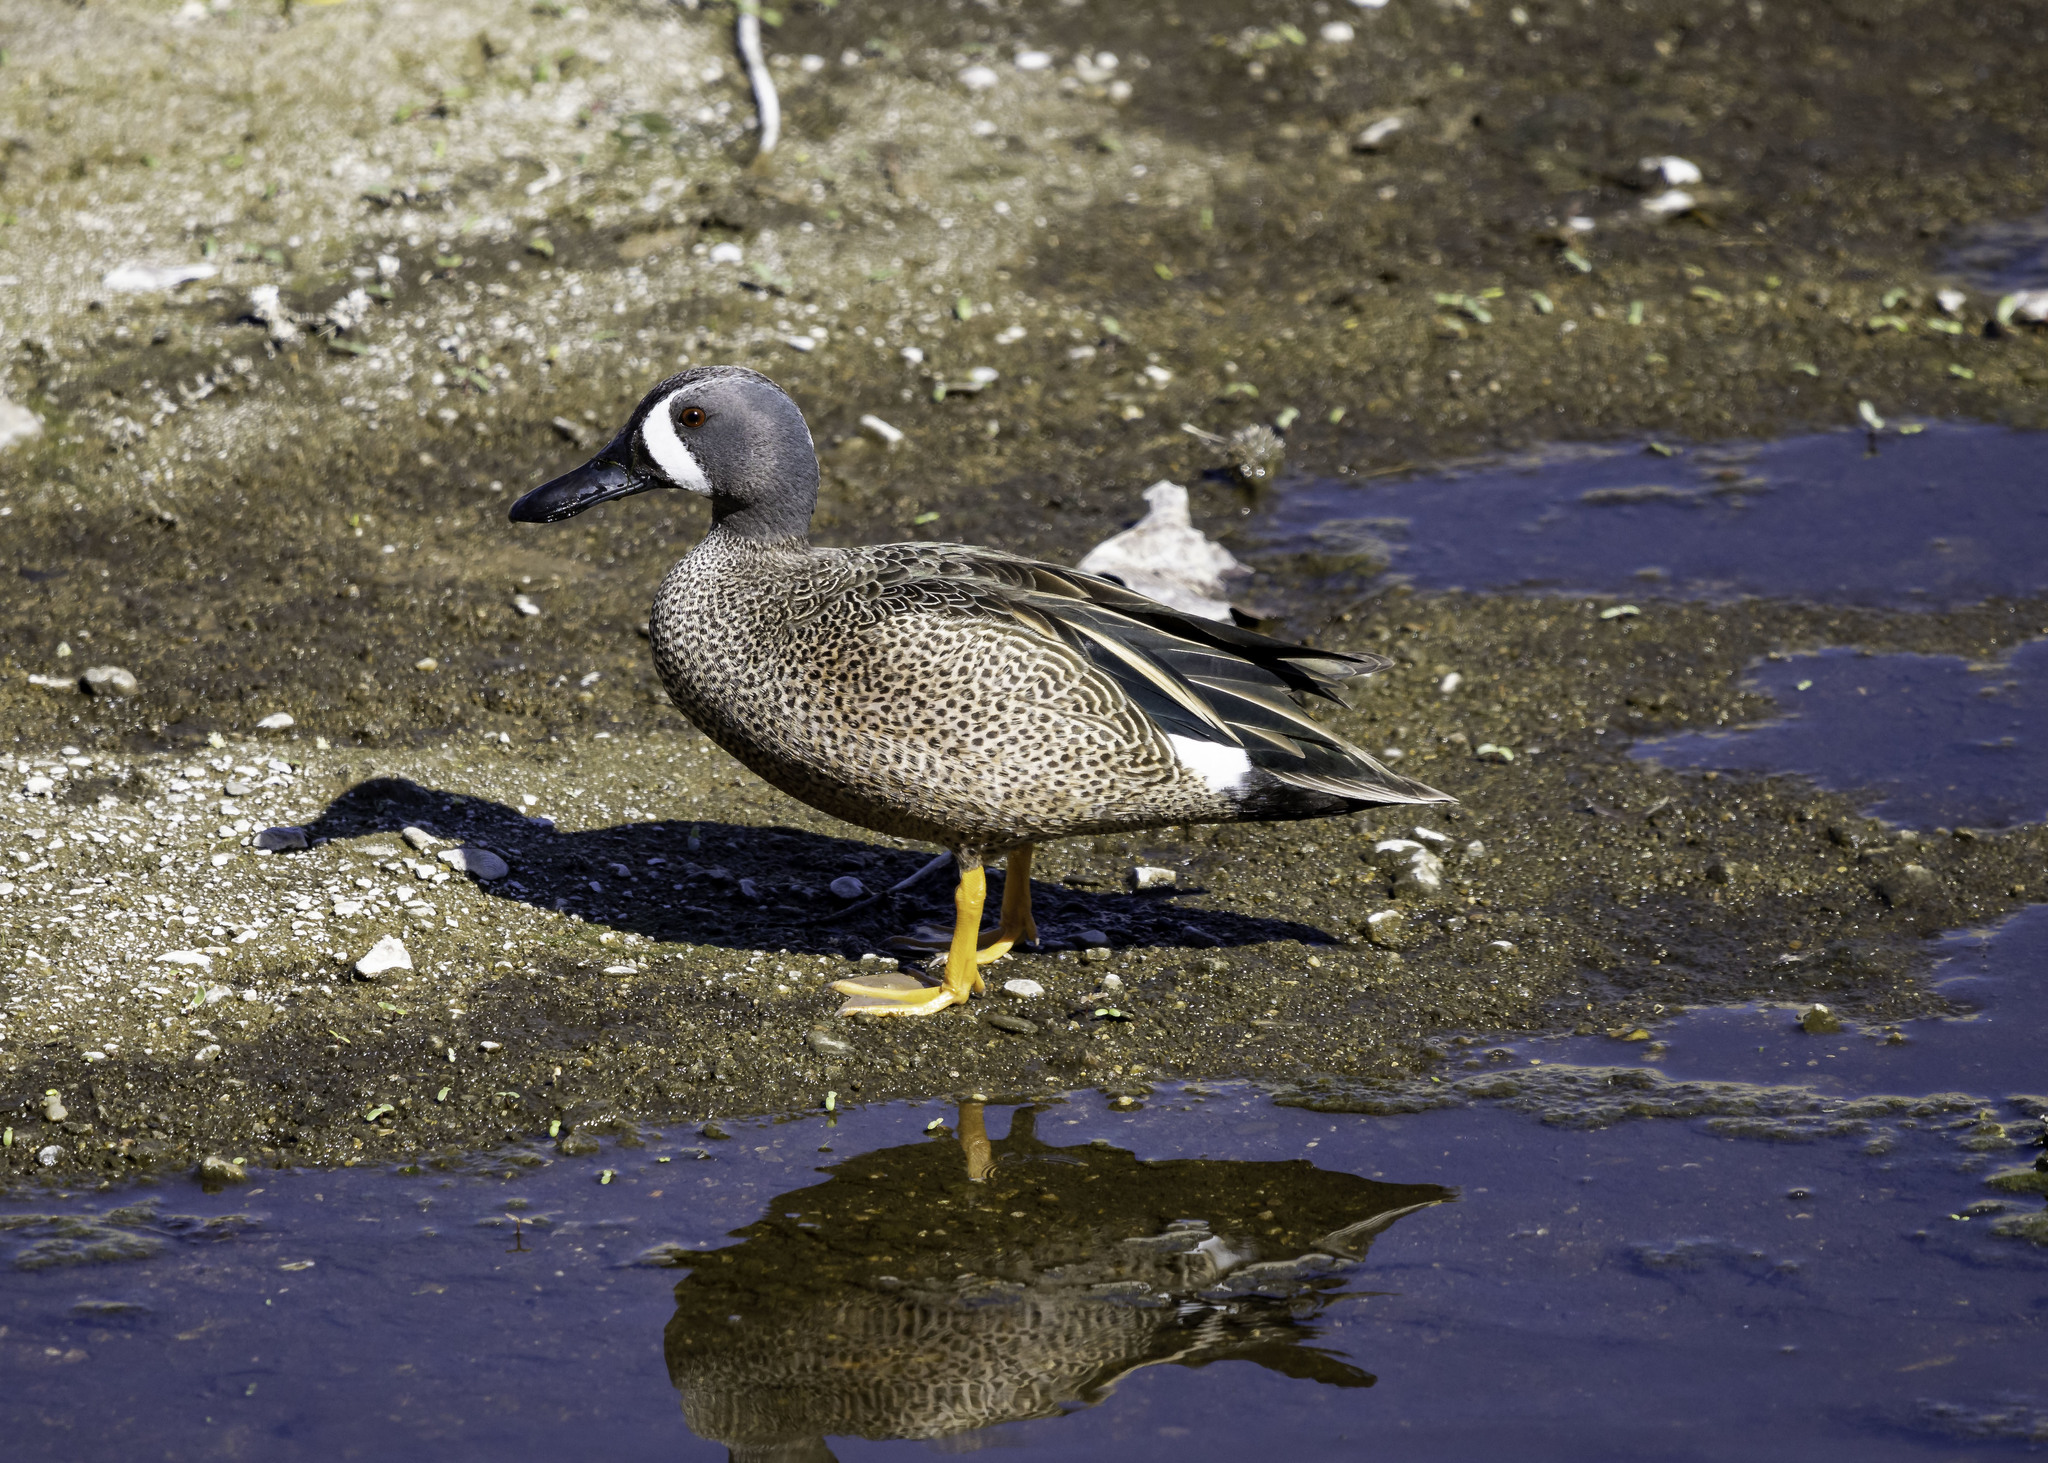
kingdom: Animalia
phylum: Chordata
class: Aves
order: Anseriformes
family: Anatidae
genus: Spatula
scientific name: Spatula discors
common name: Blue-winged teal
